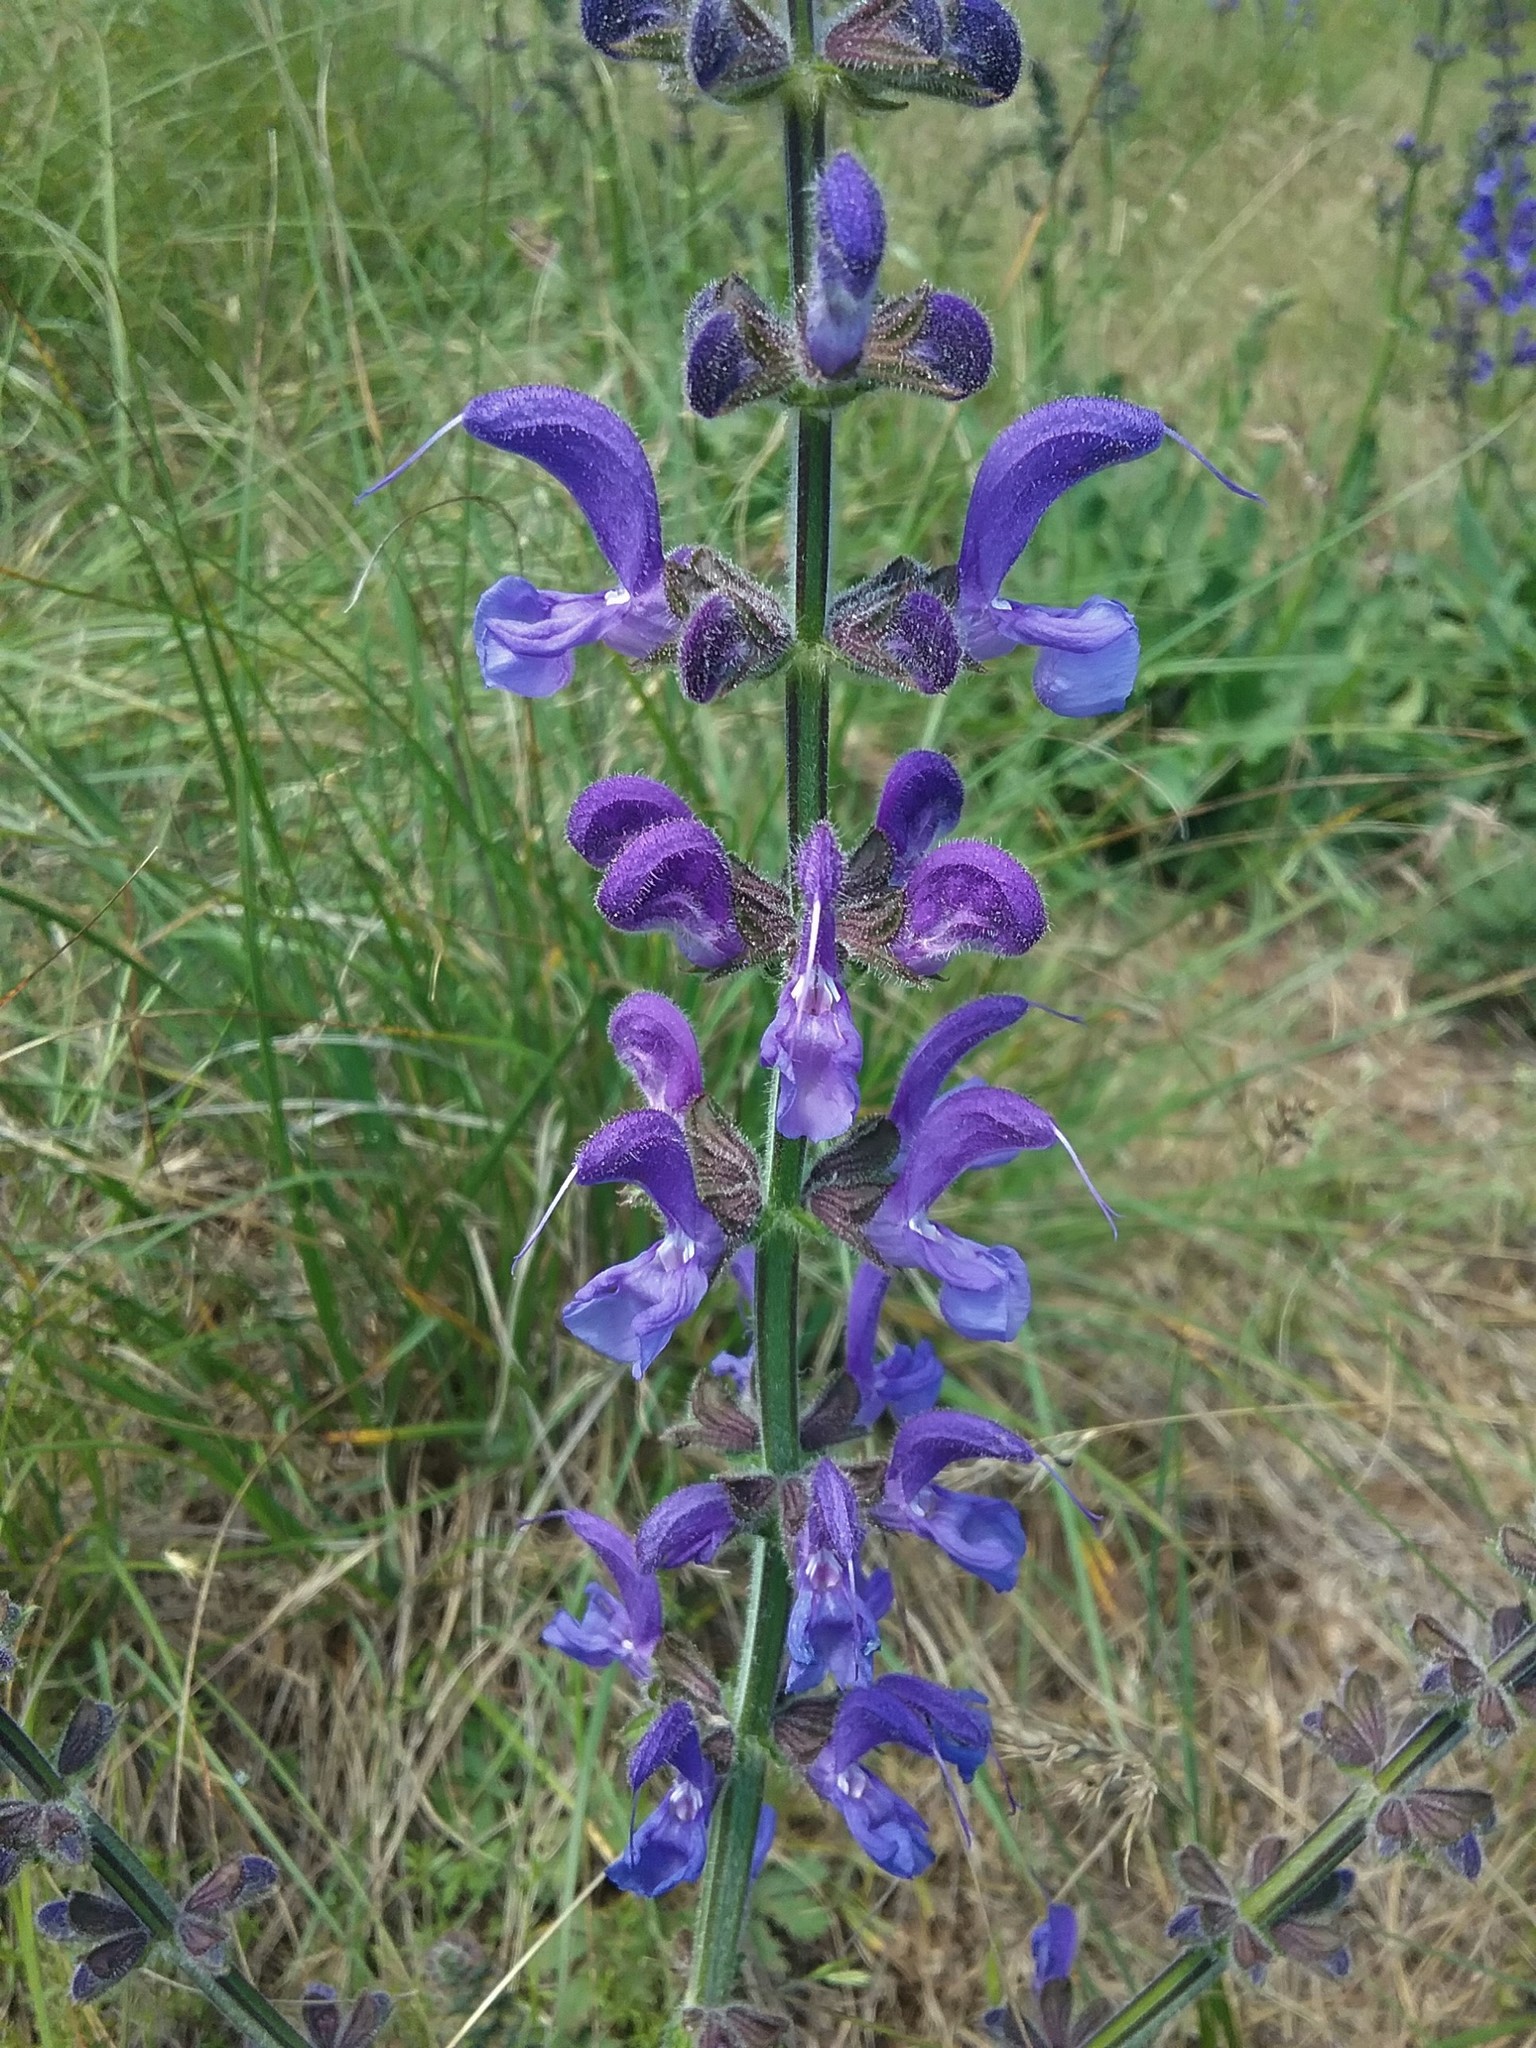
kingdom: Plantae
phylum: Tracheophyta
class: Magnoliopsida
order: Lamiales
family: Lamiaceae
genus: Salvia
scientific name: Salvia pratensis
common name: Meadow sage
